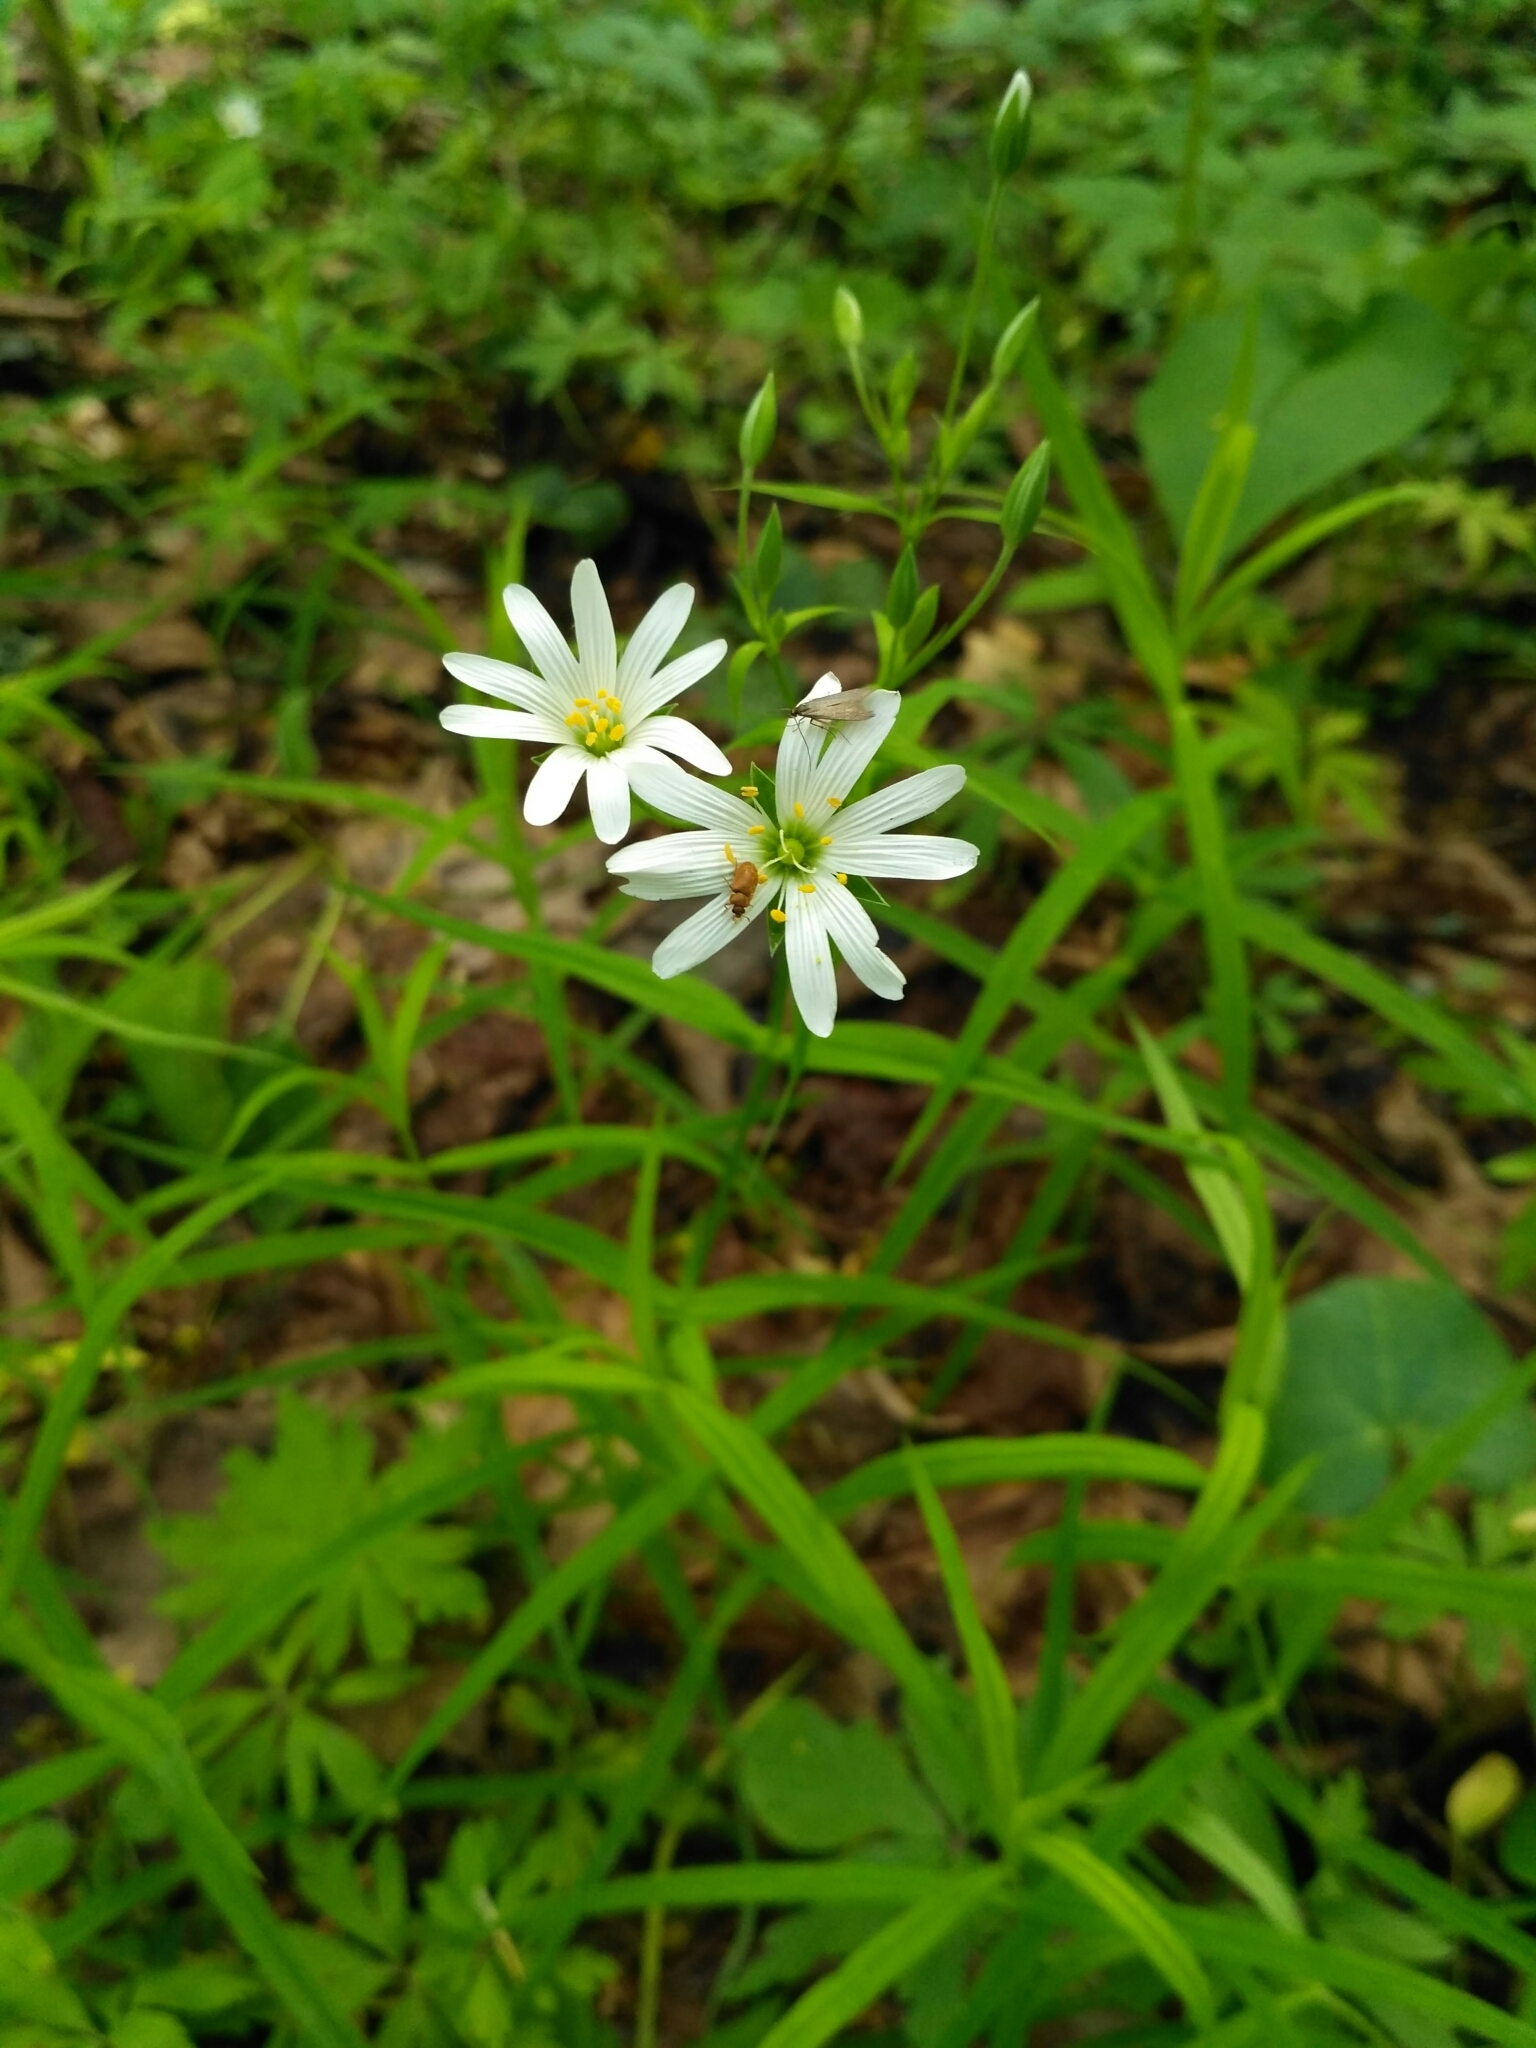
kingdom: Plantae
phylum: Tracheophyta
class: Magnoliopsida
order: Caryophyllales
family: Caryophyllaceae
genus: Rabelera
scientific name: Rabelera holostea
